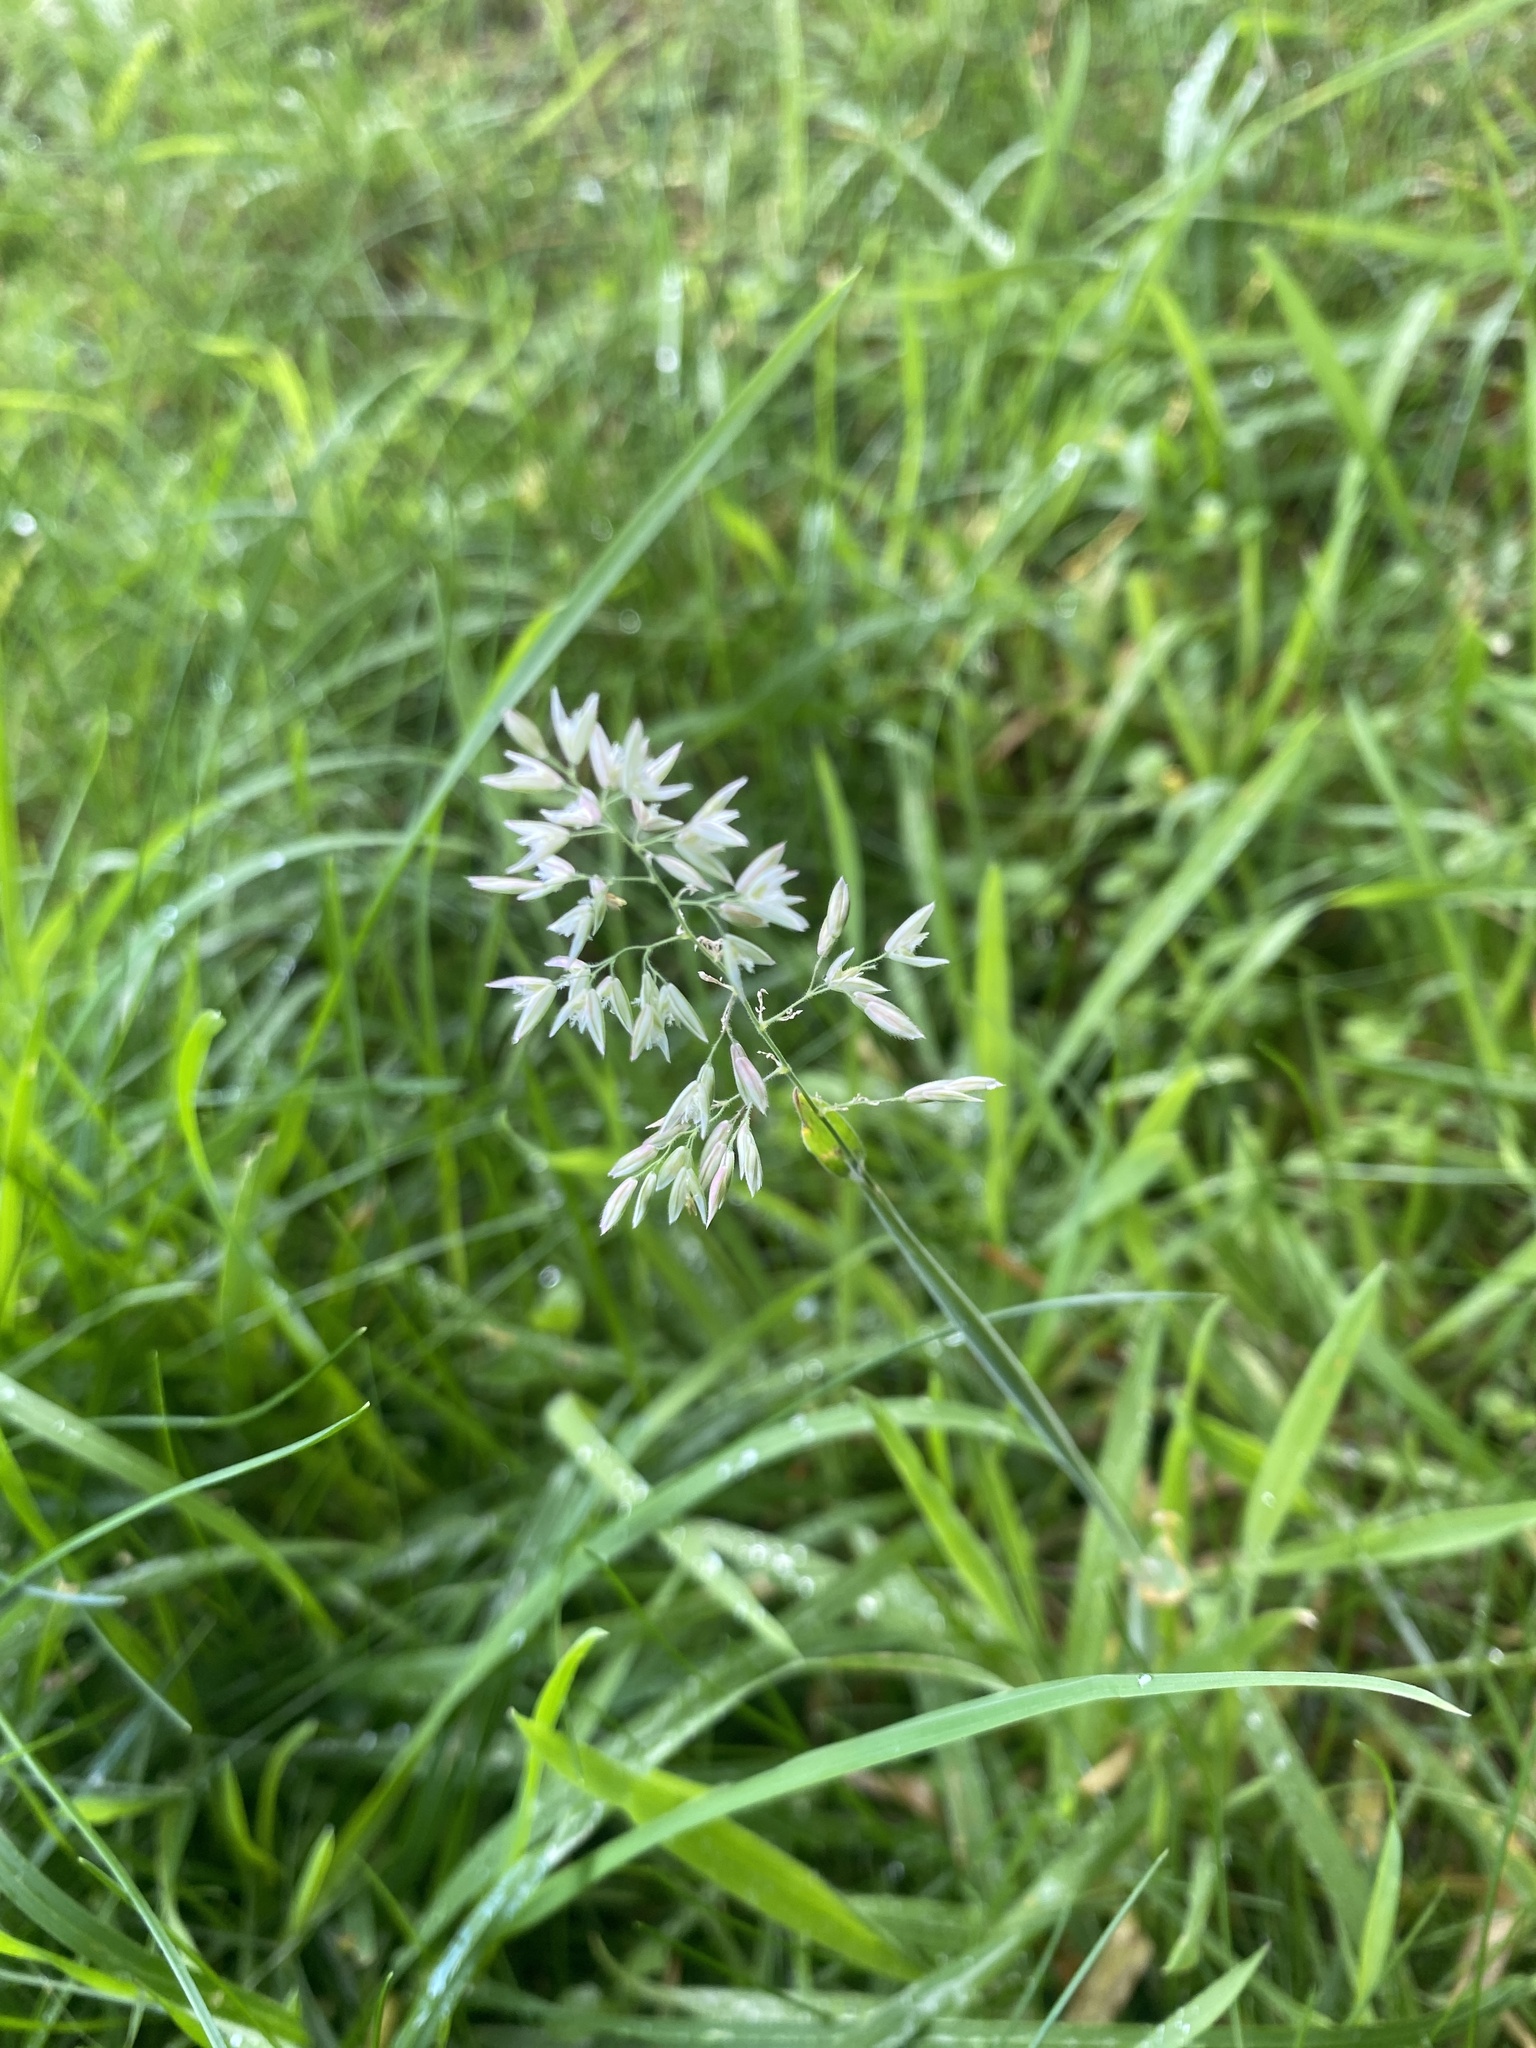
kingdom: Plantae
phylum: Tracheophyta
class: Liliopsida
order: Poales
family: Poaceae
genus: Holcus
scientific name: Holcus lanatus
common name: Yorkshire-fog
